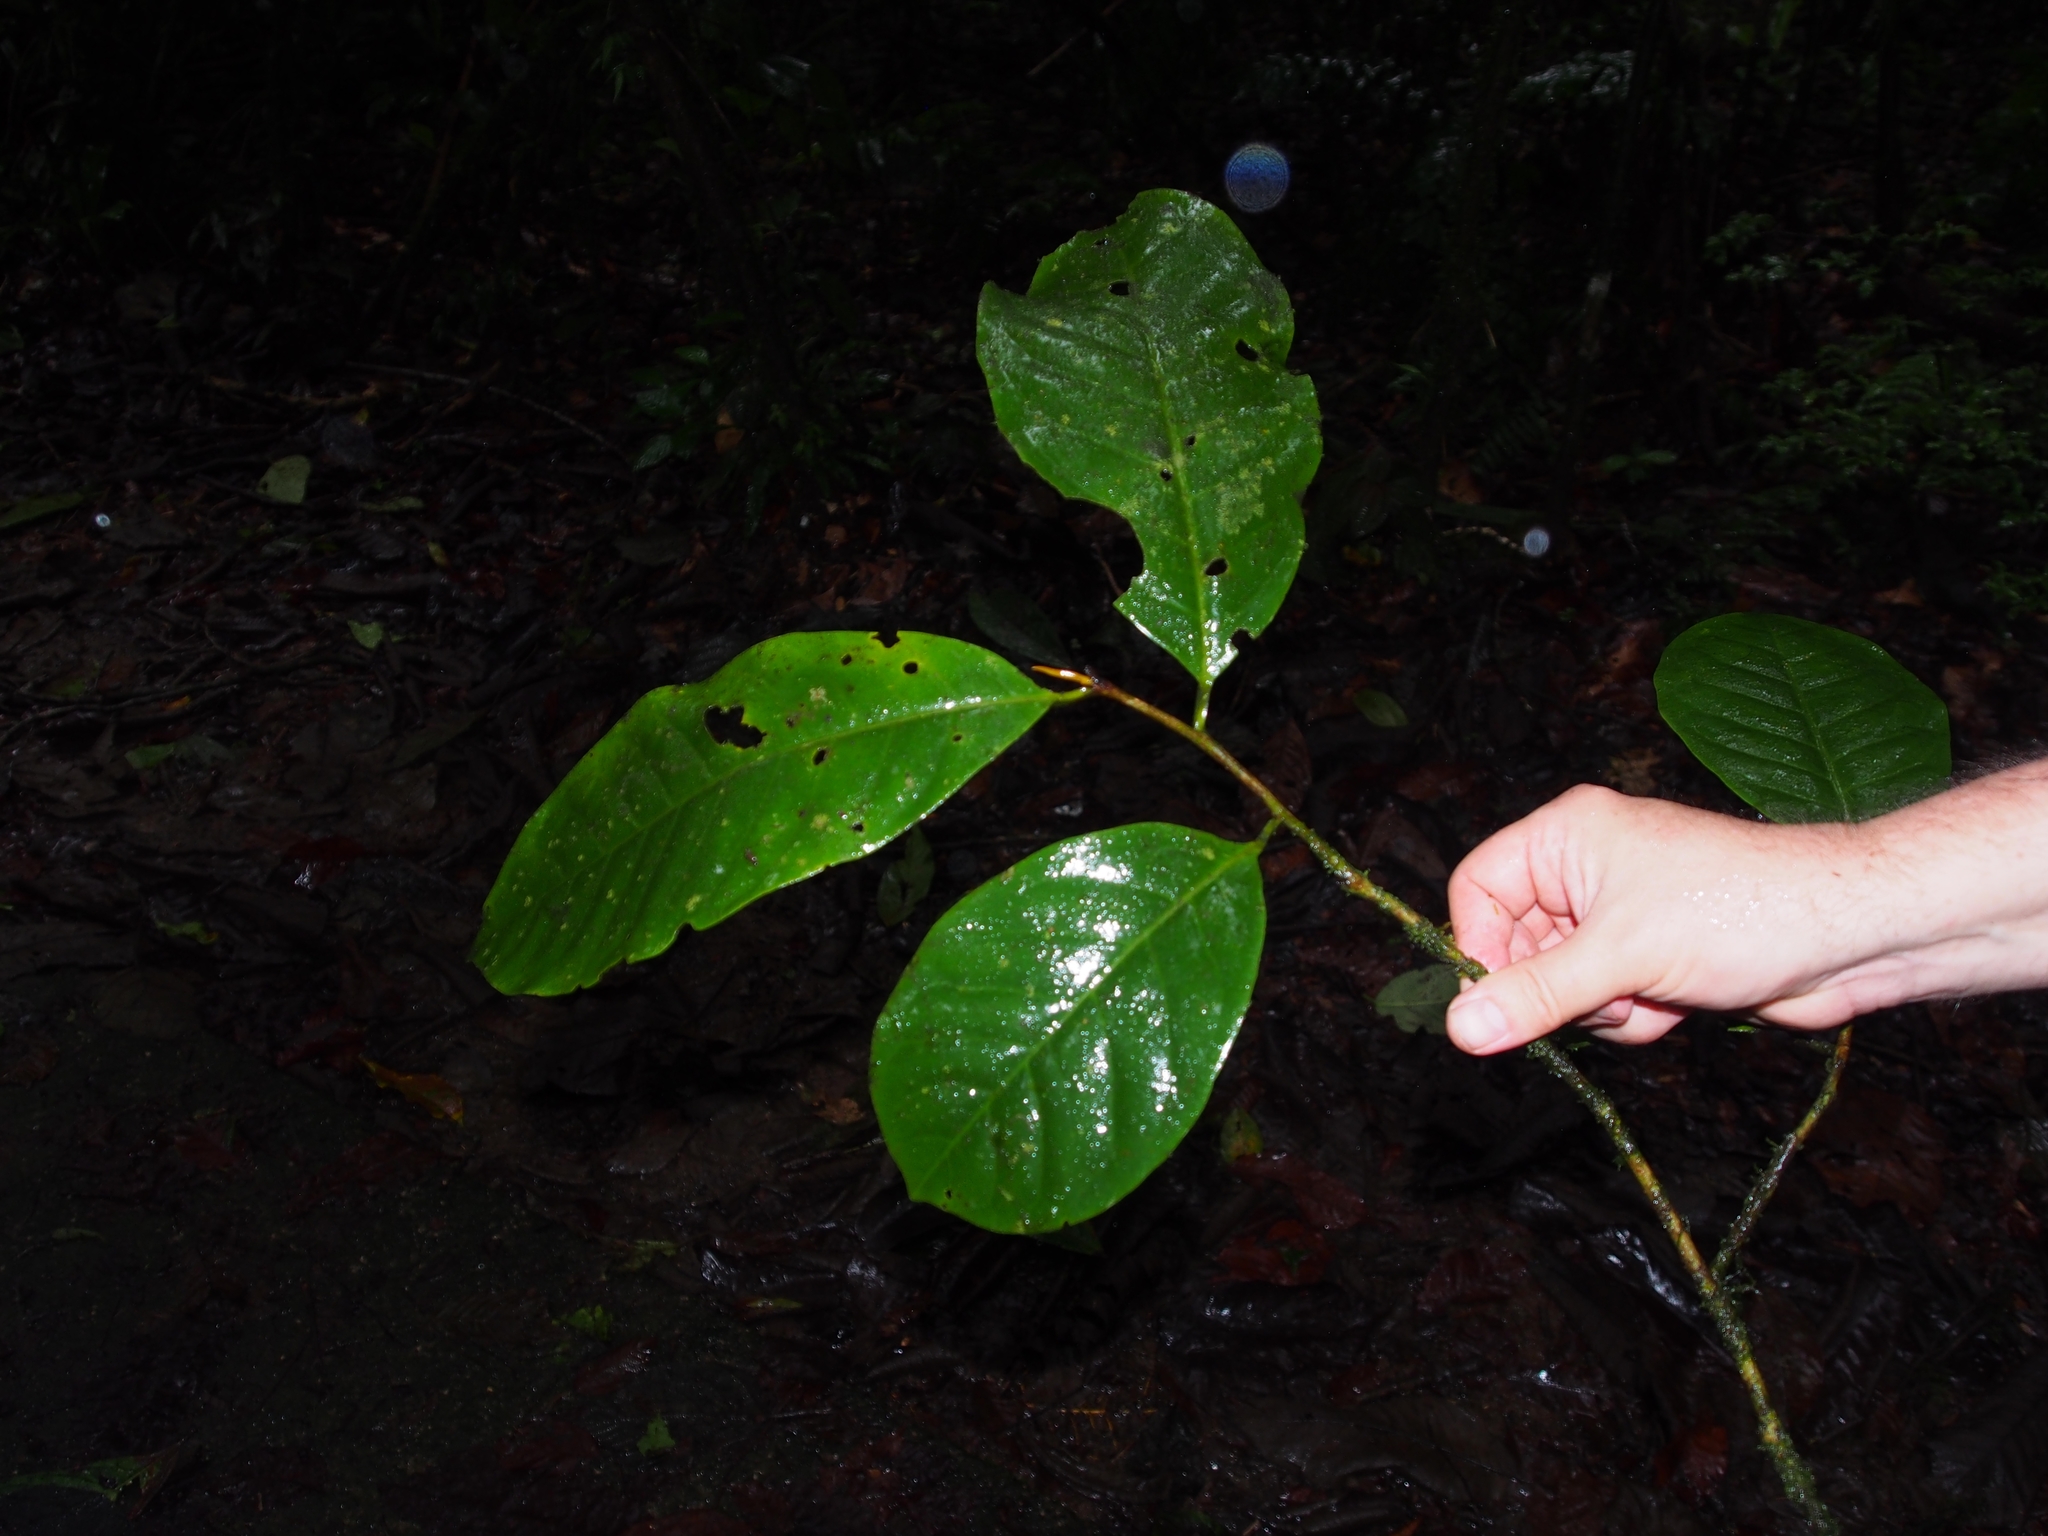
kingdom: Plantae
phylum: Tracheophyta
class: Magnoliopsida
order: Magnoliales
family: Myristicaceae
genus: Otoba
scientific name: Otoba novogranatensis
